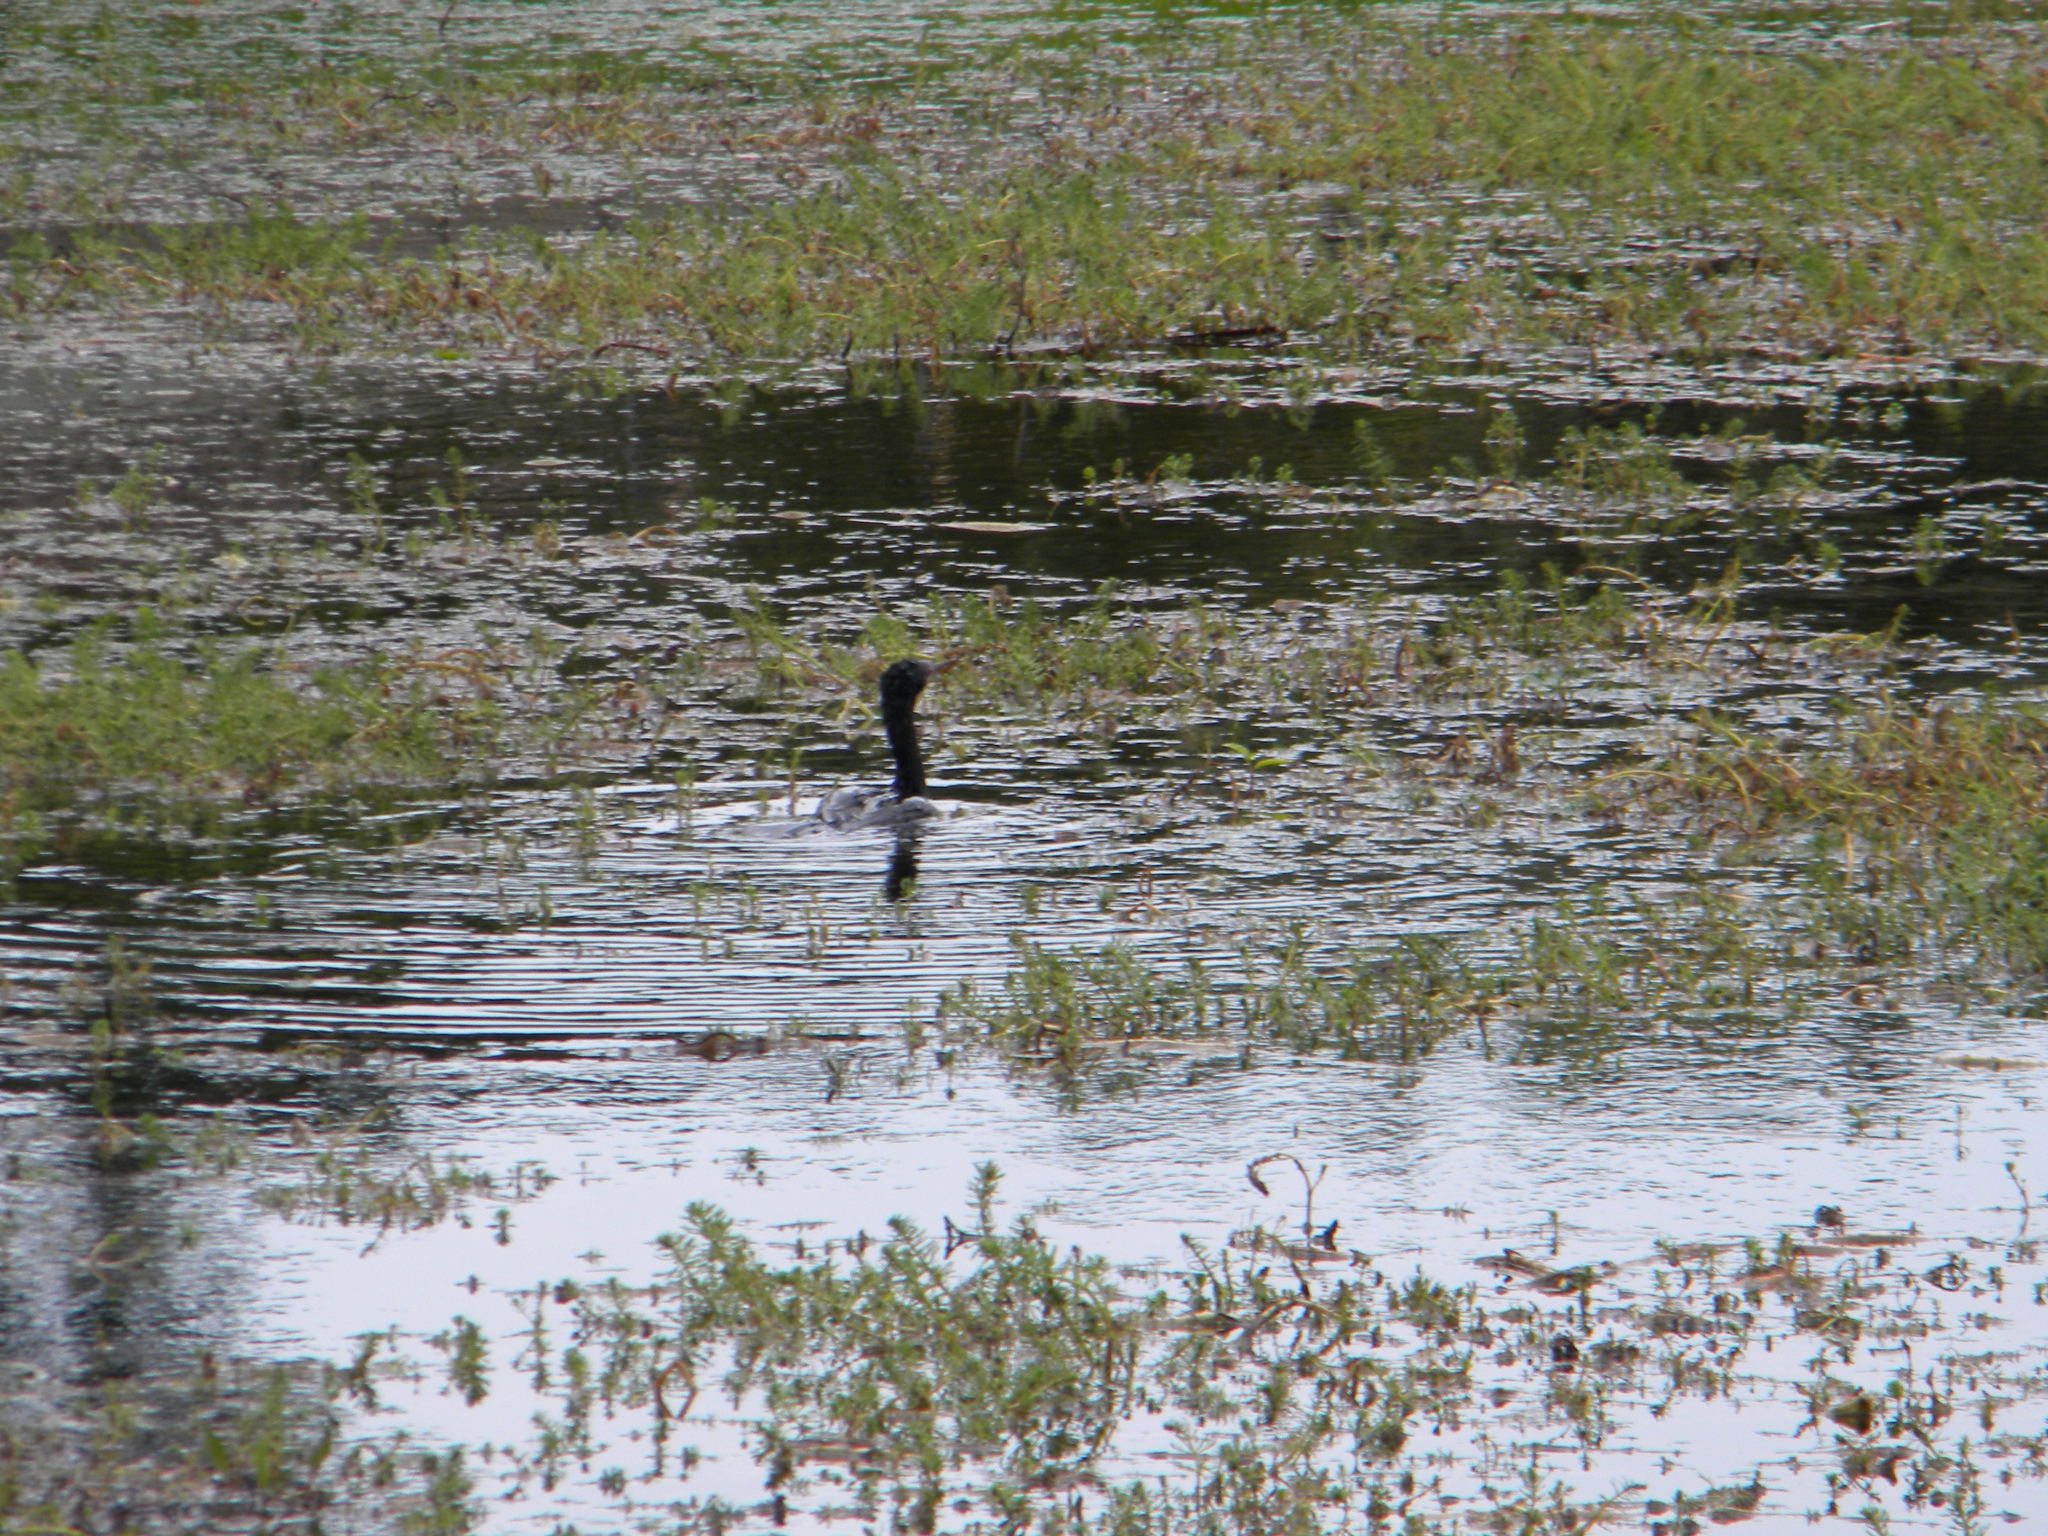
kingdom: Animalia
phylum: Chordata
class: Aves
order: Suliformes
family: Phalacrocoracidae
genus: Microcarbo
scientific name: Microcarbo africanus
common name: Long-tailed cormorant
